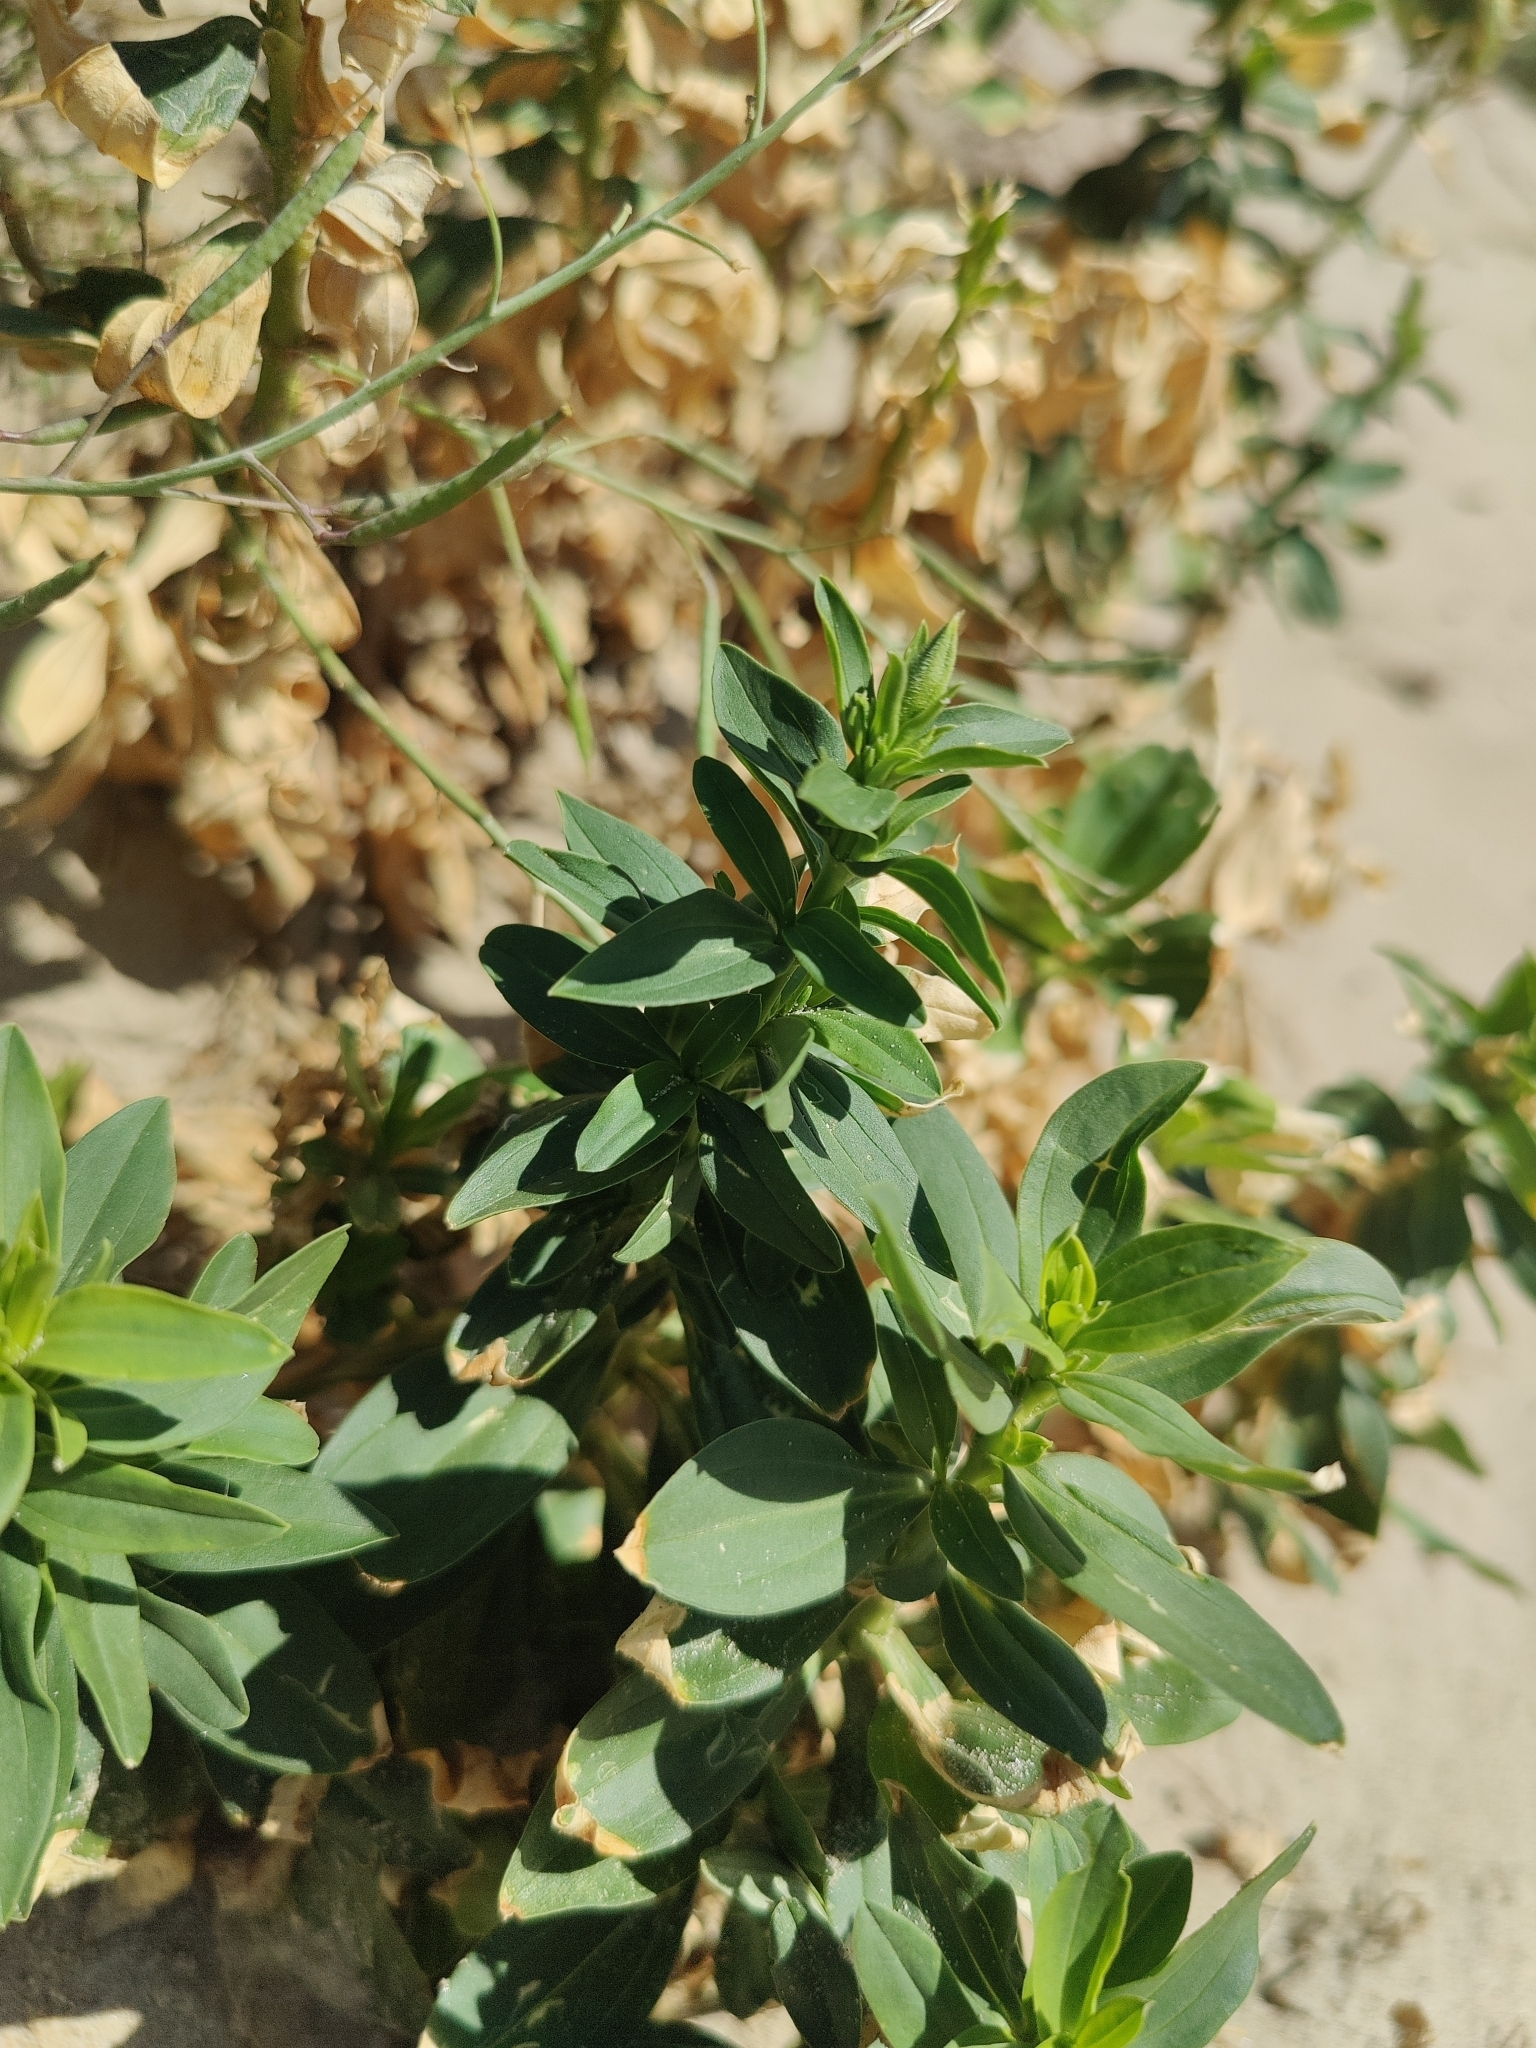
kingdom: Plantae
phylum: Tracheophyta
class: Magnoliopsida
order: Caryophyllales
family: Caryophyllaceae
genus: Saponaria
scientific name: Saponaria officinalis
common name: Soapwort
